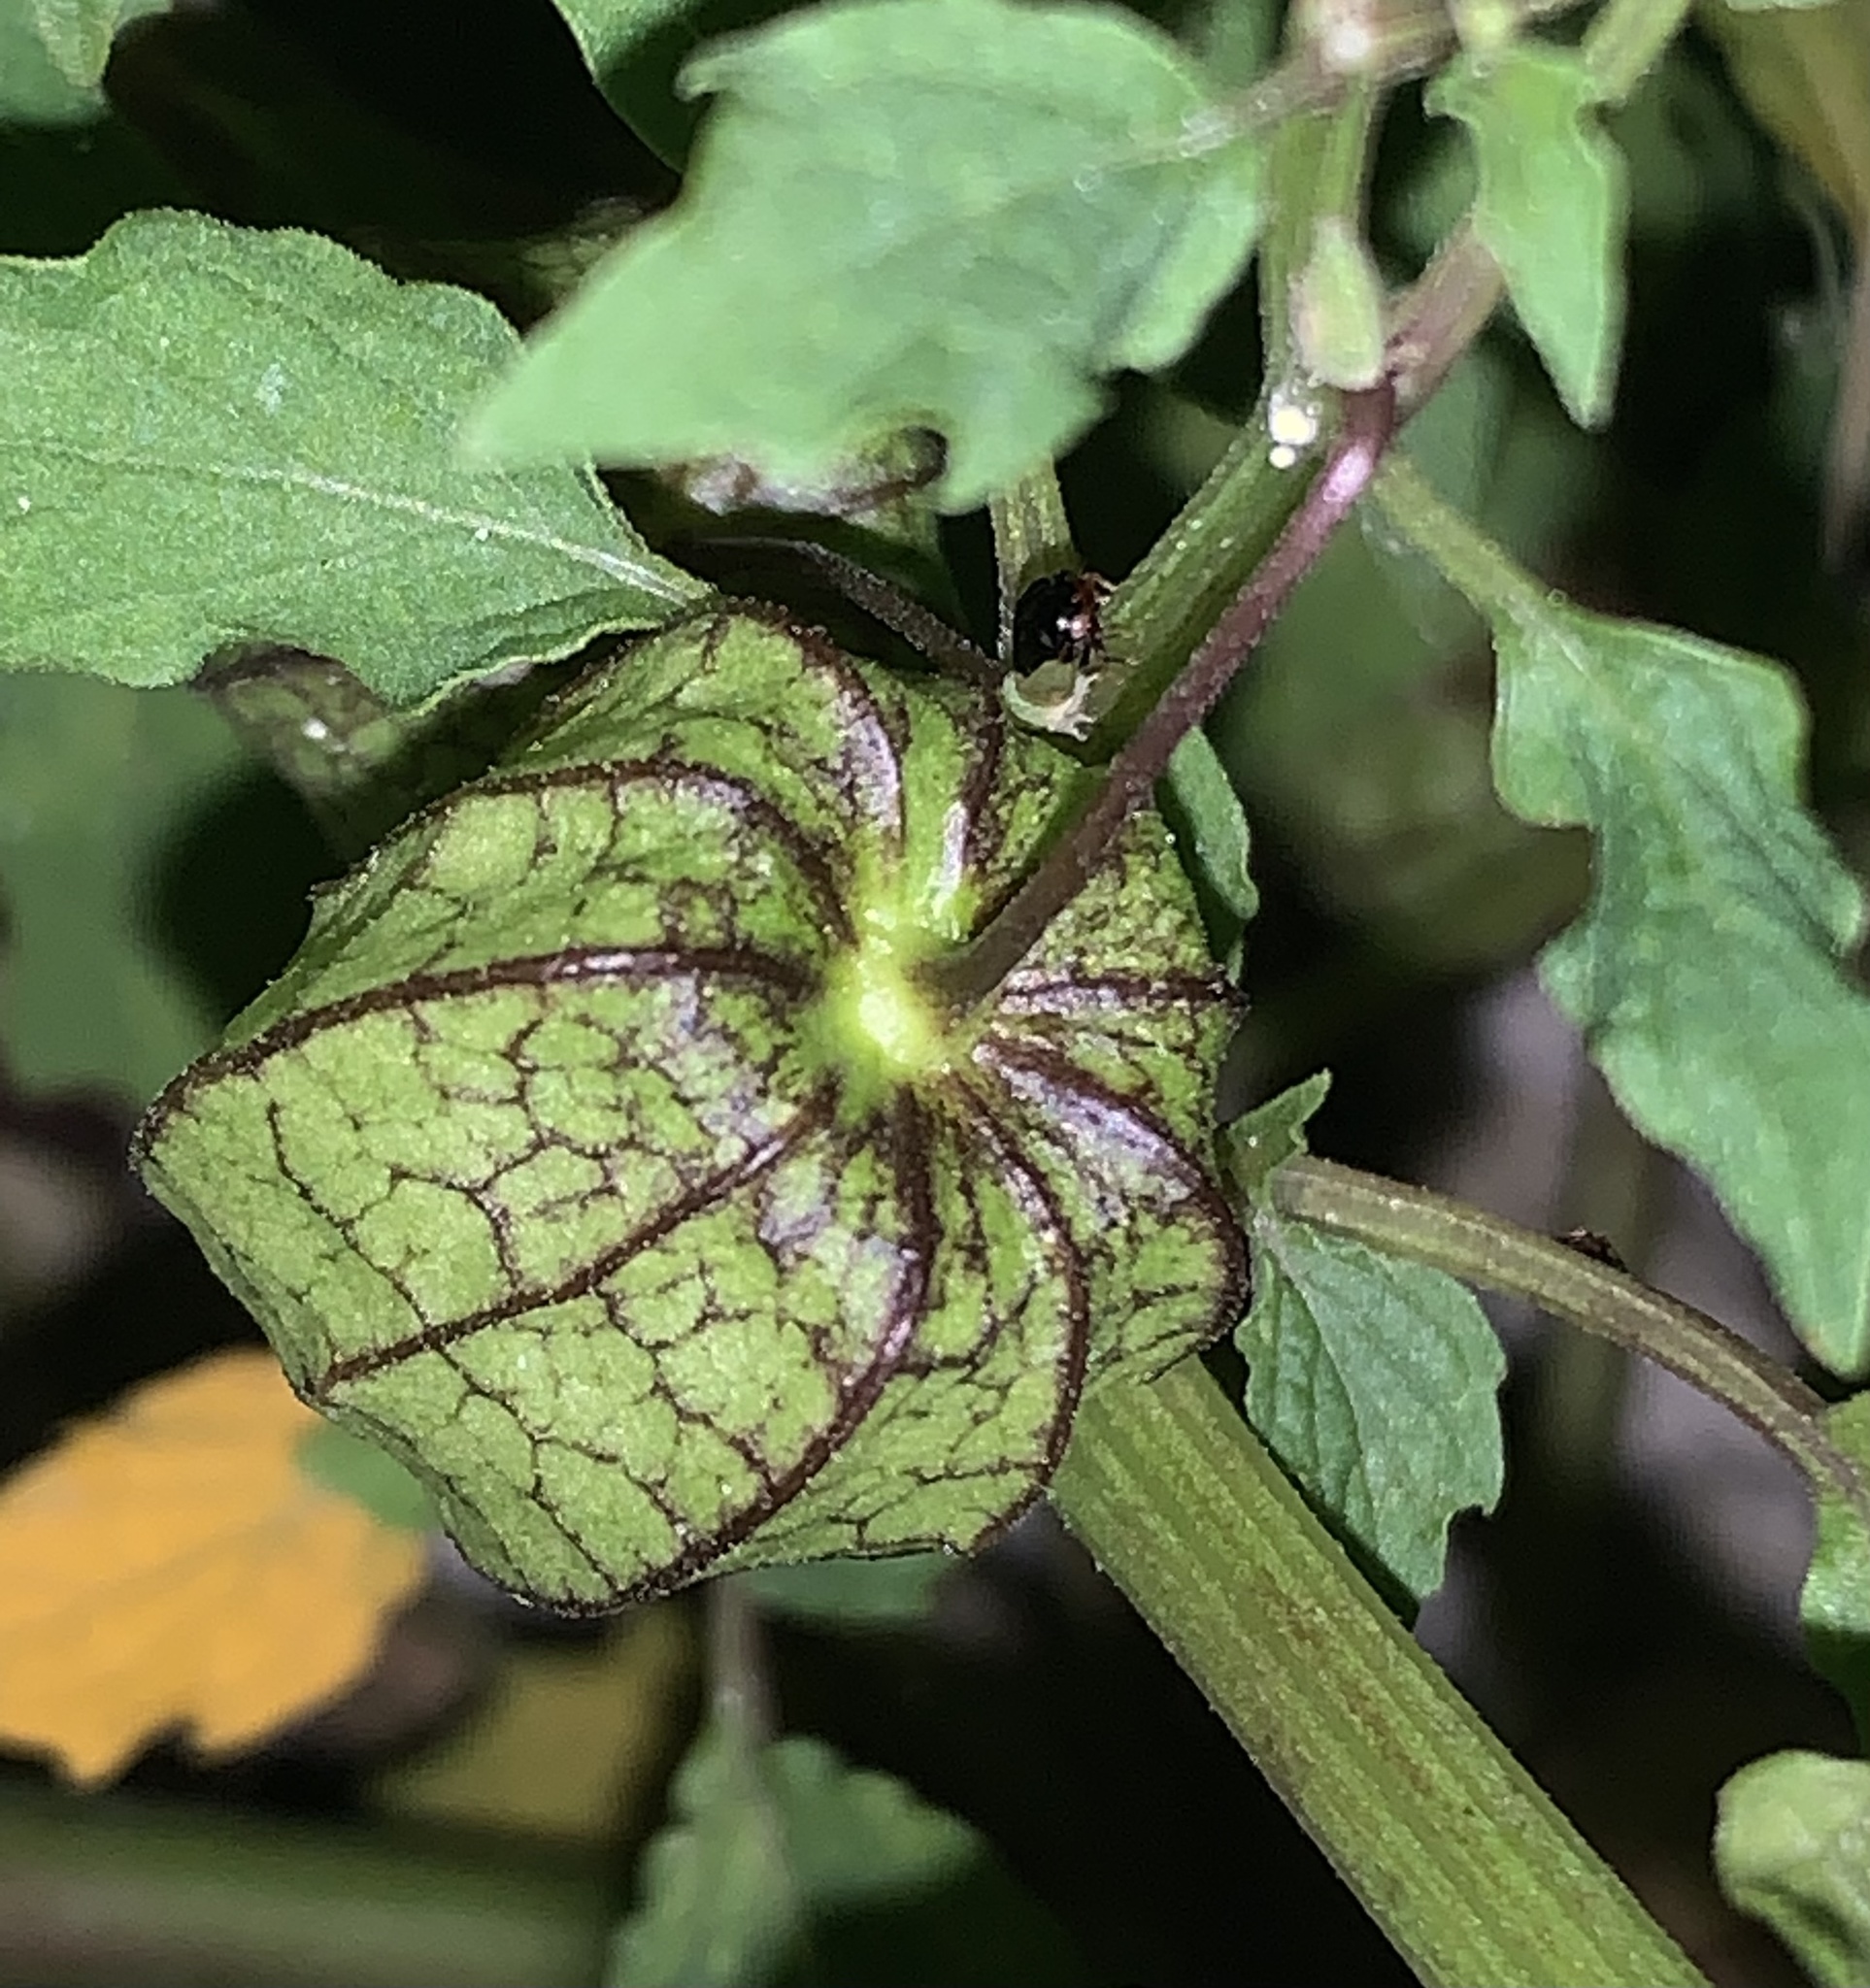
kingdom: Plantae
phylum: Tracheophyta
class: Magnoliopsida
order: Solanales
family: Solanaceae
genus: Physalis
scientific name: Physalis angulata
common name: Angular winter-cherry
